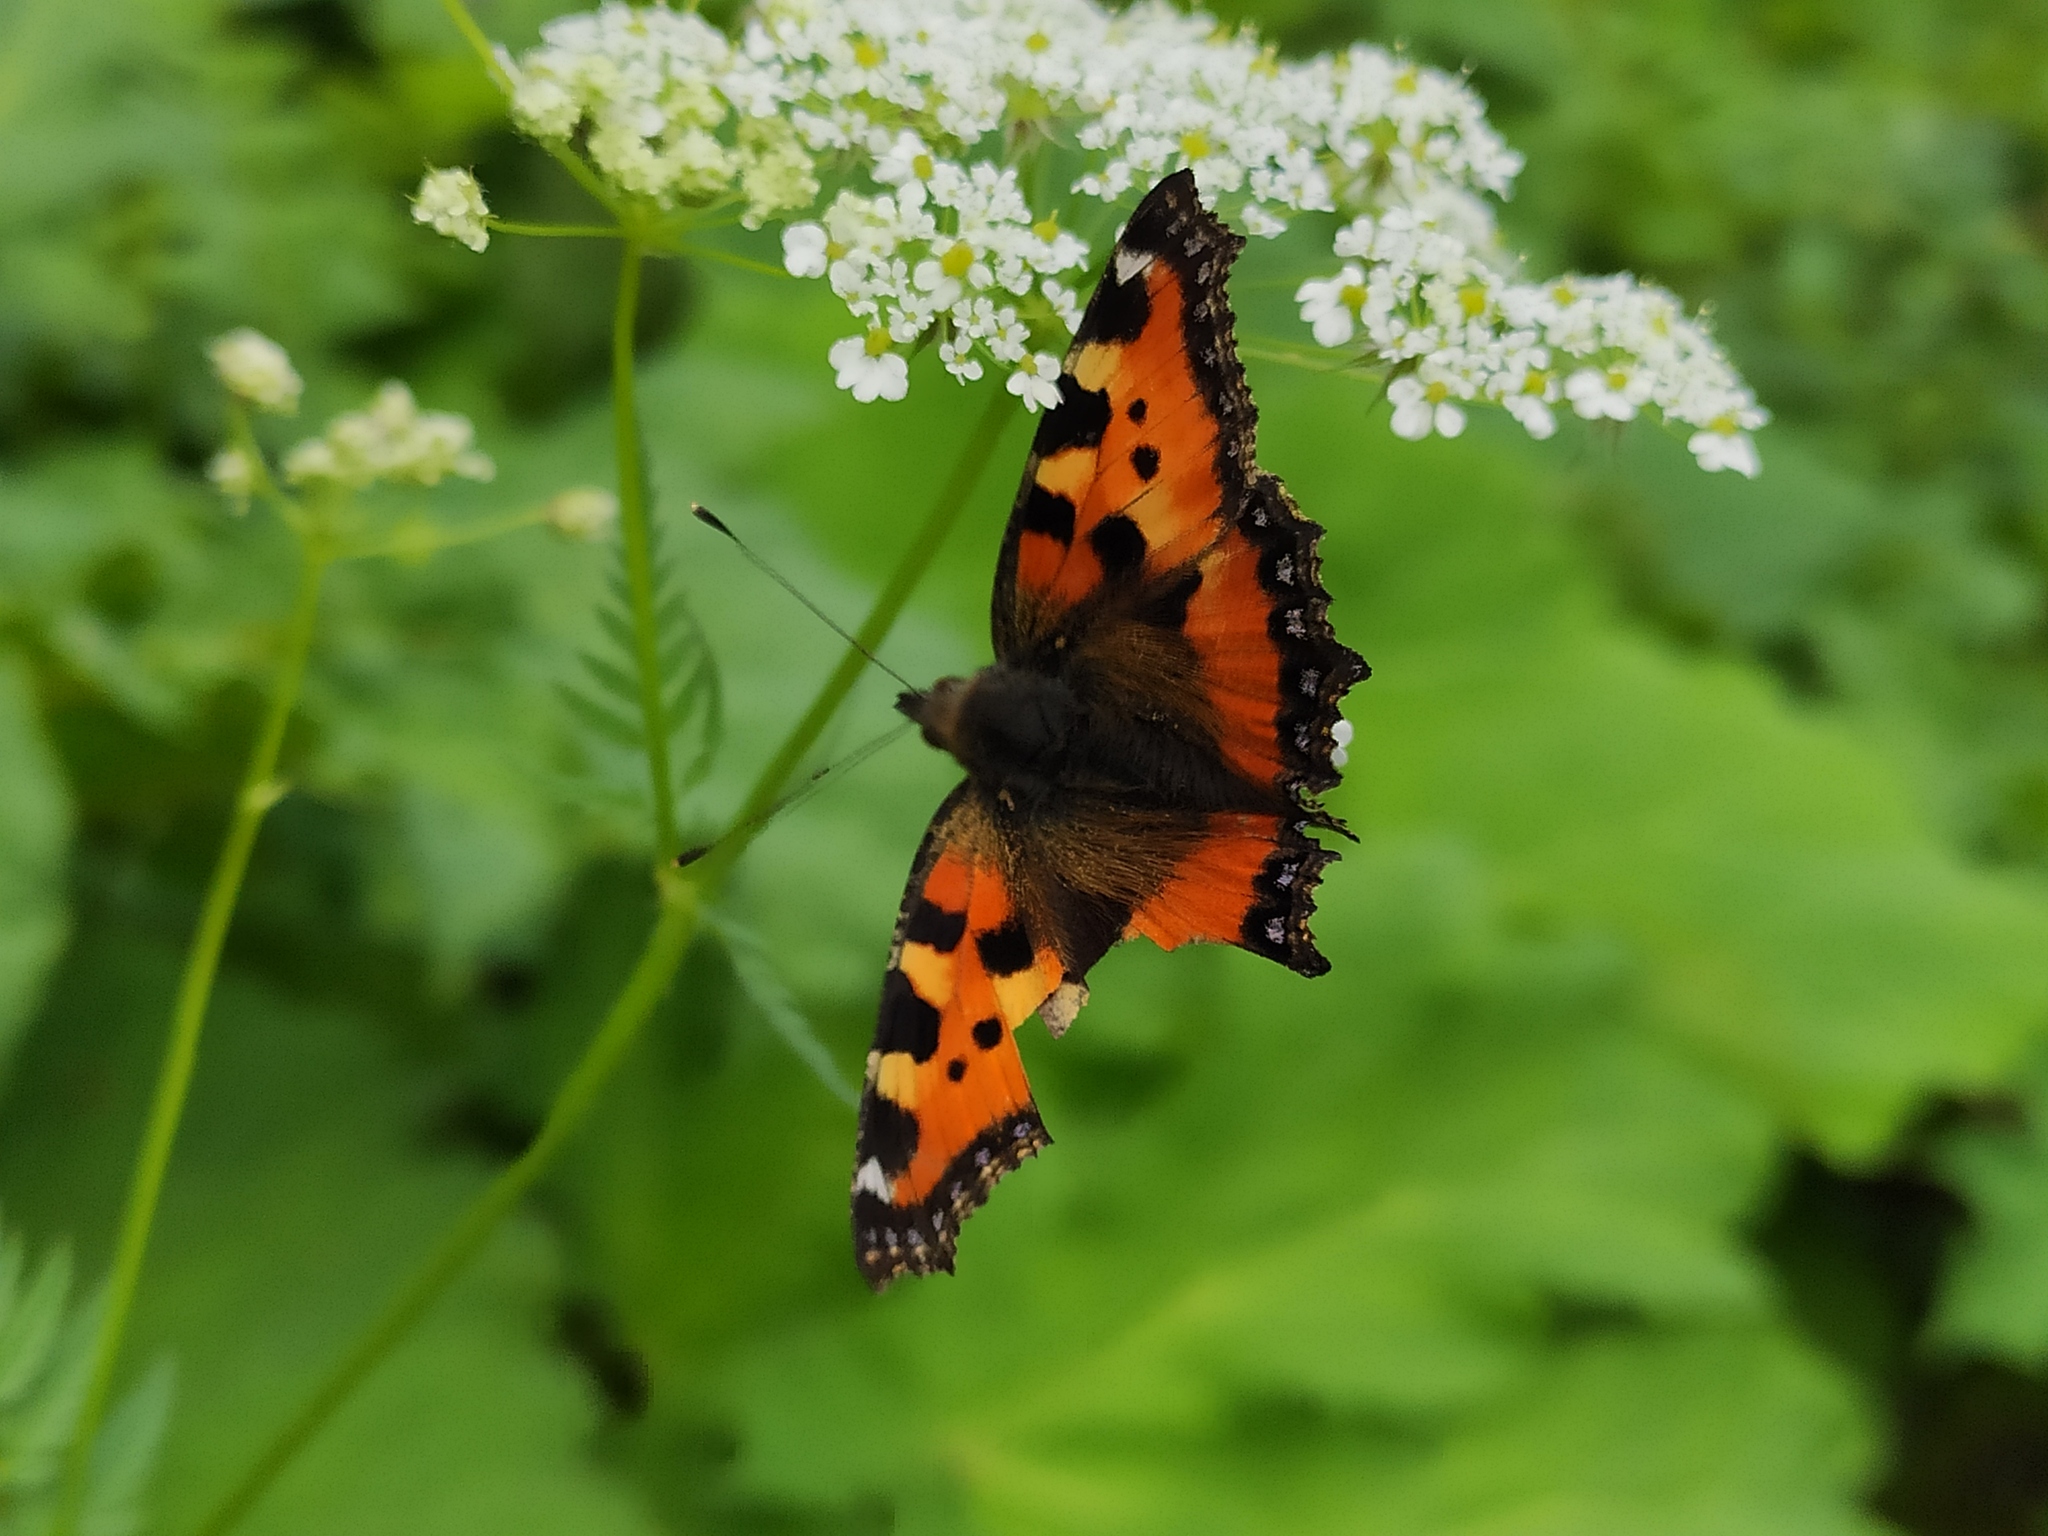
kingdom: Animalia
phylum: Arthropoda
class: Insecta
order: Lepidoptera
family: Nymphalidae
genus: Aglais
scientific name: Aglais urticae
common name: Small tortoiseshell
